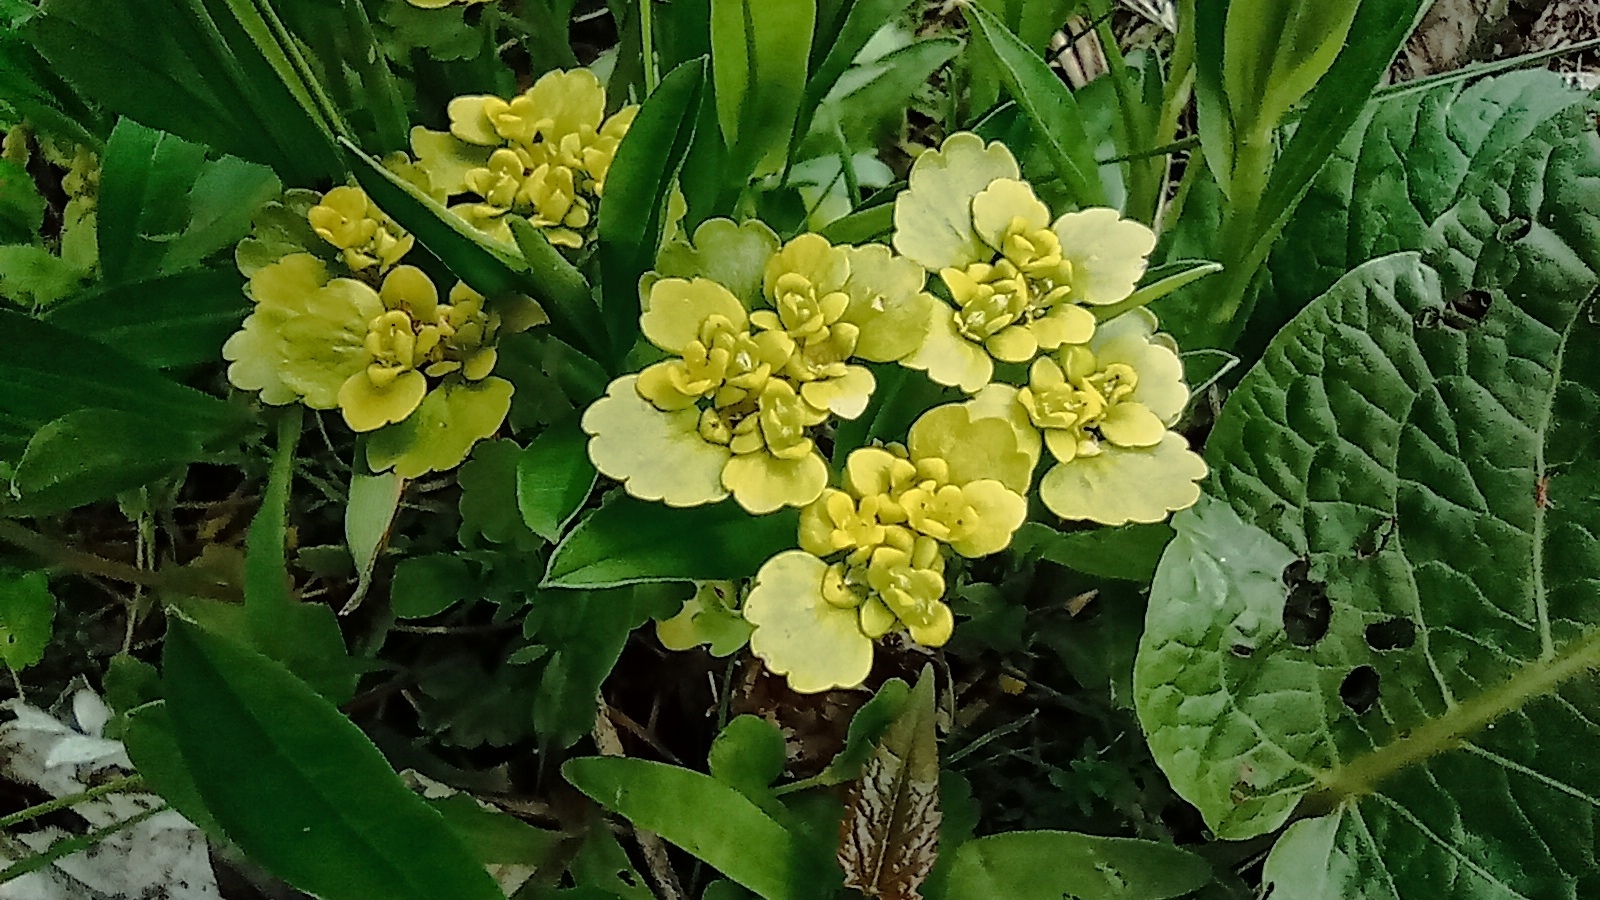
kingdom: Plantae
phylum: Tracheophyta
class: Magnoliopsida
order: Saxifragales
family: Saxifragaceae
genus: Chrysosplenium
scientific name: Chrysosplenium alternifolium
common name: Alternate-leaved golden-saxifrage
